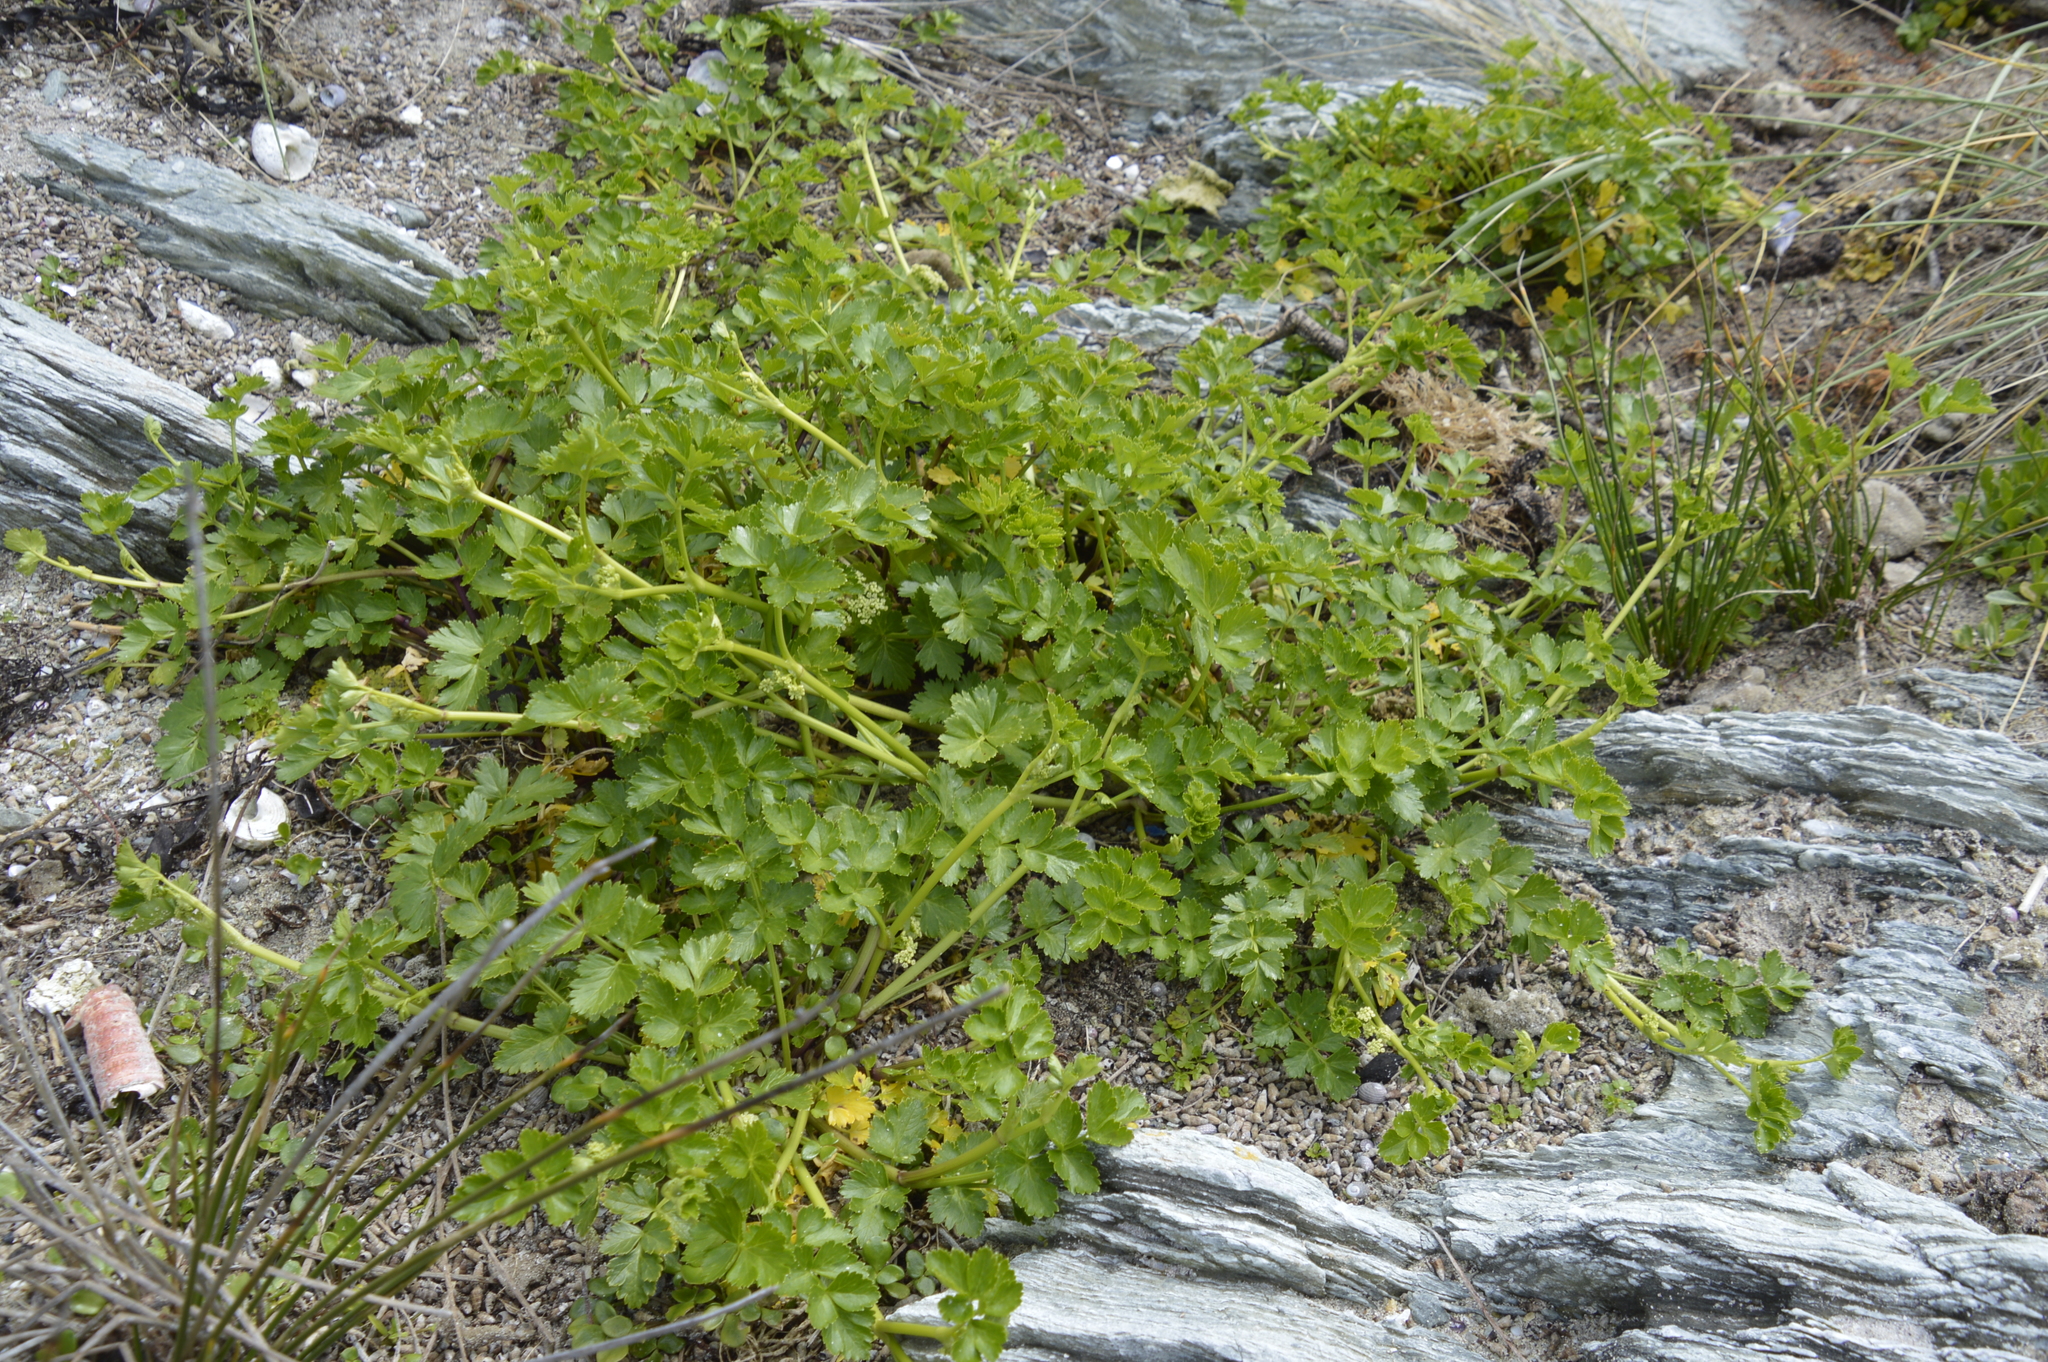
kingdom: Plantae
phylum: Tracheophyta
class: Magnoliopsida
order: Apiales
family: Apiaceae
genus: Apium
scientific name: Apium prostratum
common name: Prostrate marshwort
